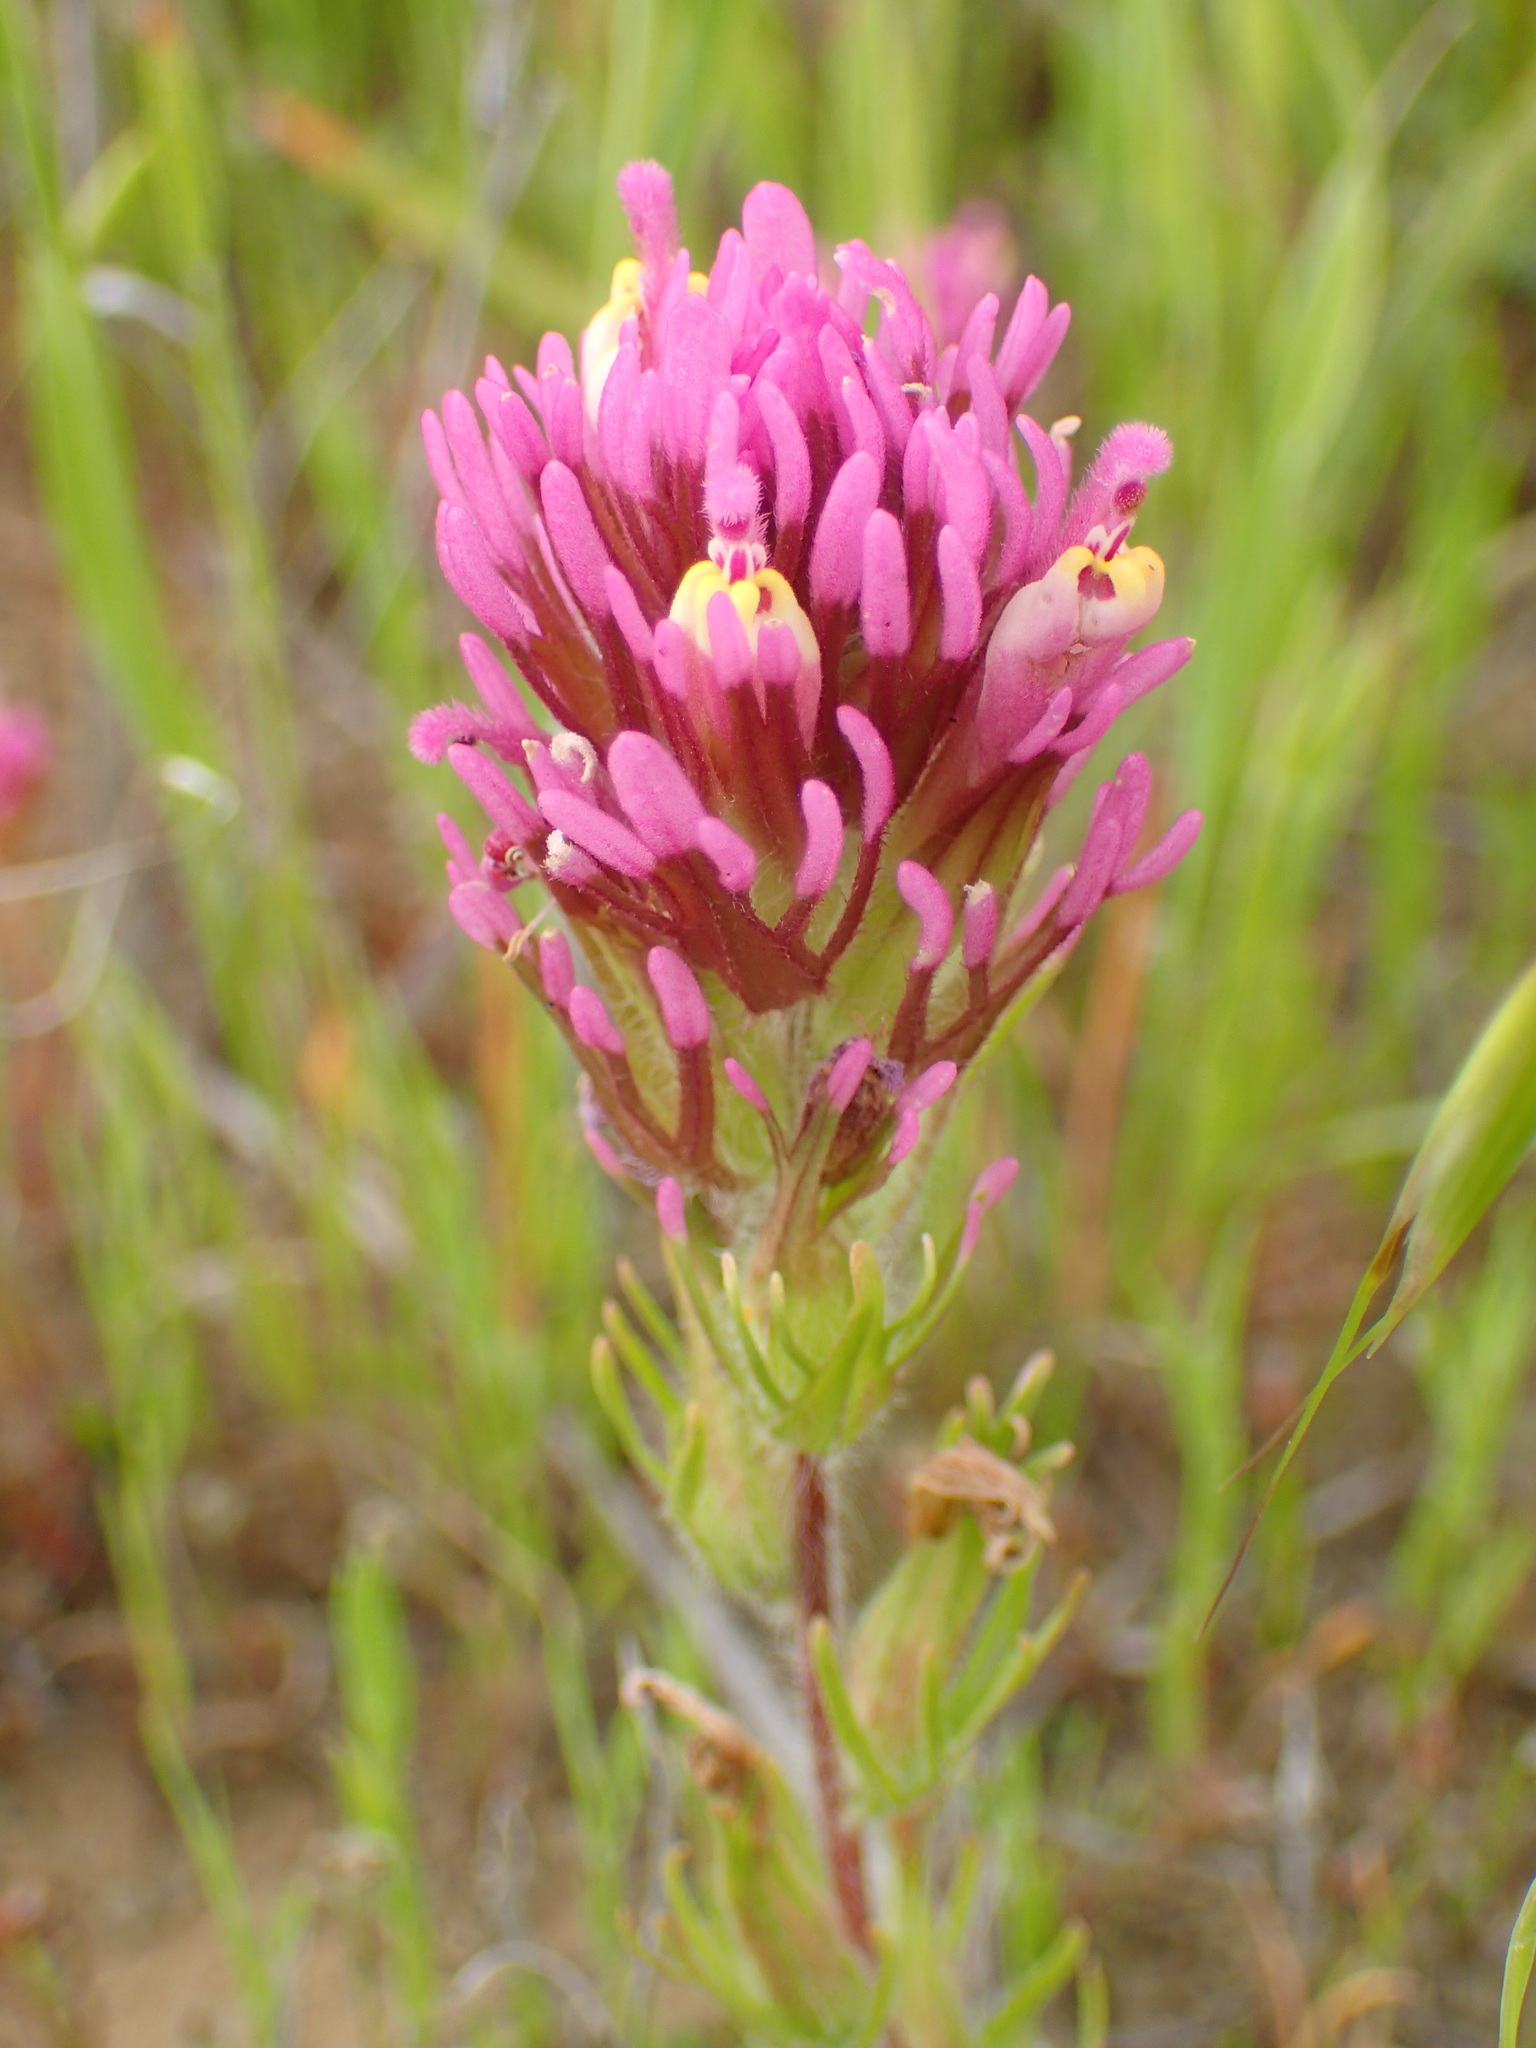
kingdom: Plantae
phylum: Tracheophyta
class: Magnoliopsida
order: Lamiales
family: Orobanchaceae
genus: Castilleja
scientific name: Castilleja exserta
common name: Purple owl-clover
